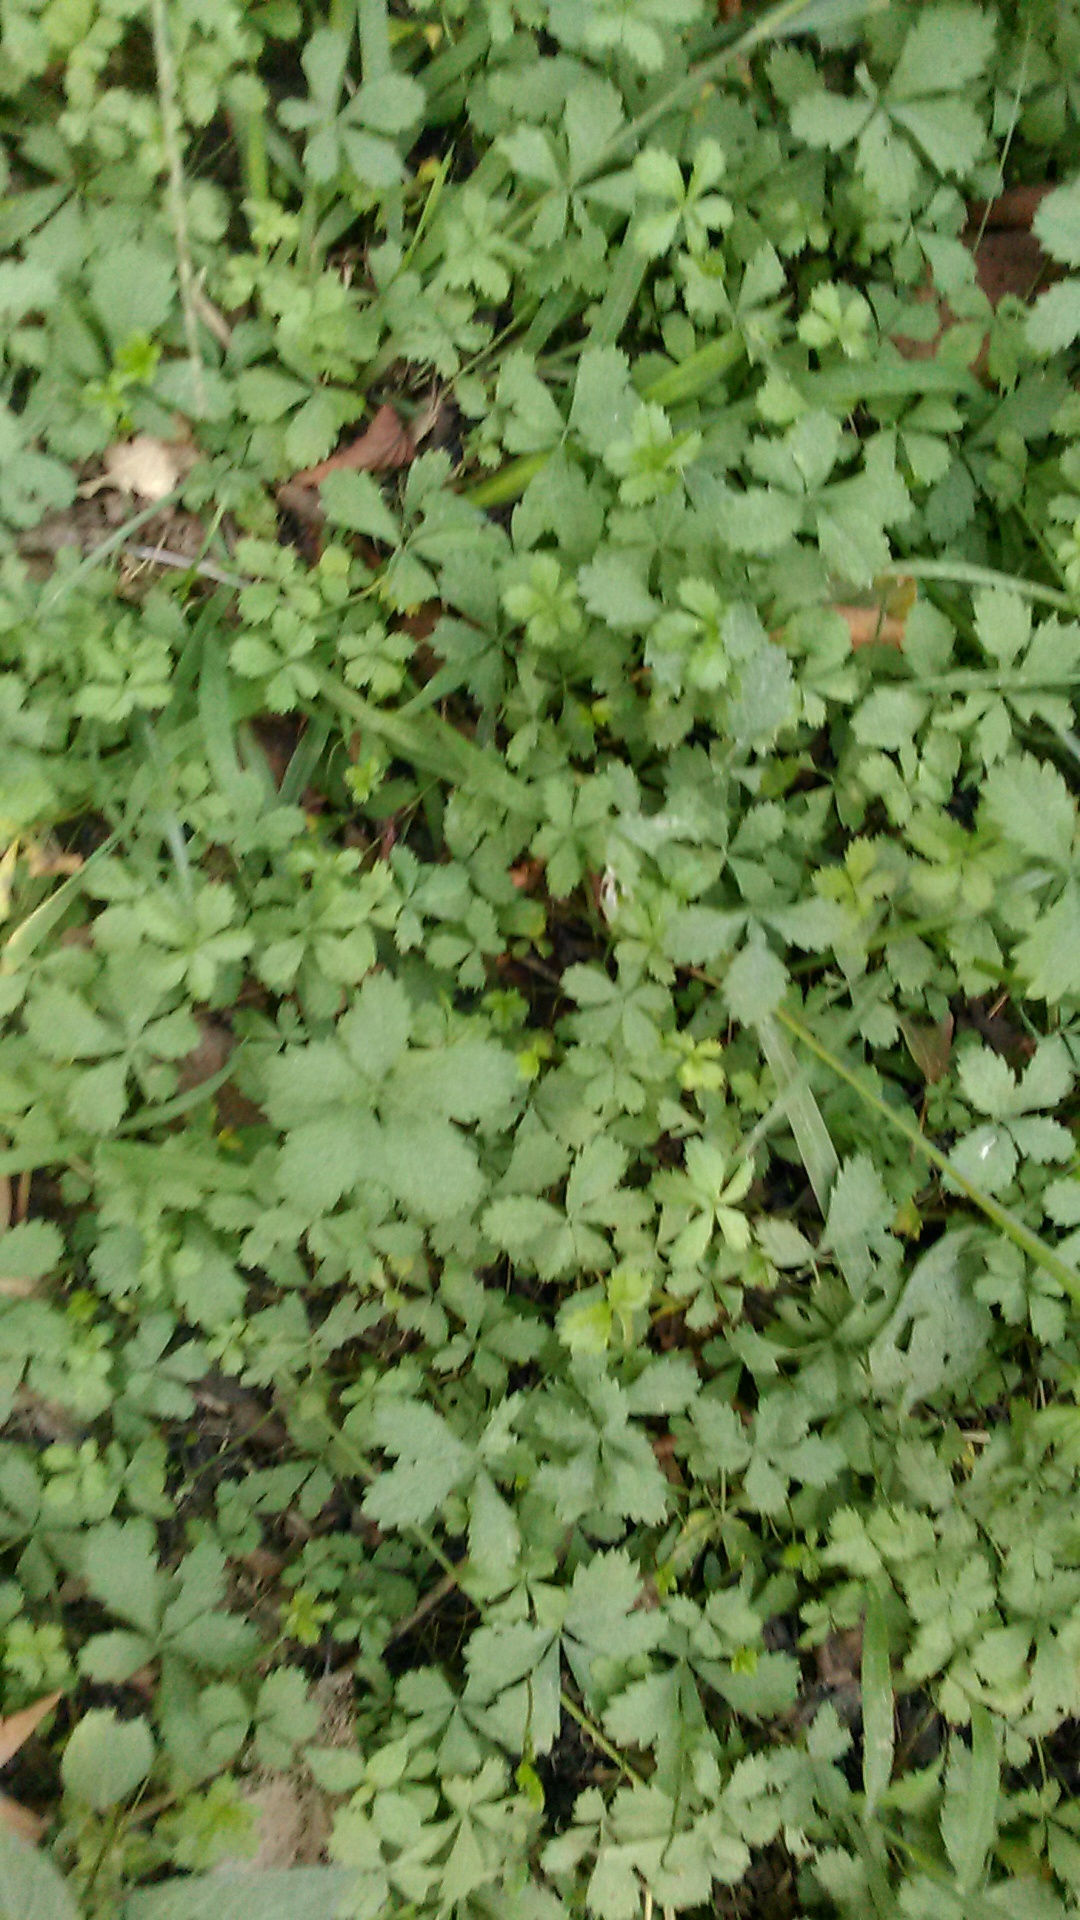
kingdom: Plantae
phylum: Tracheophyta
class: Magnoliopsida
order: Rosales
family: Rosaceae
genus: Potentilla
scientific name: Potentilla reptans
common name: Creeping cinquefoil
